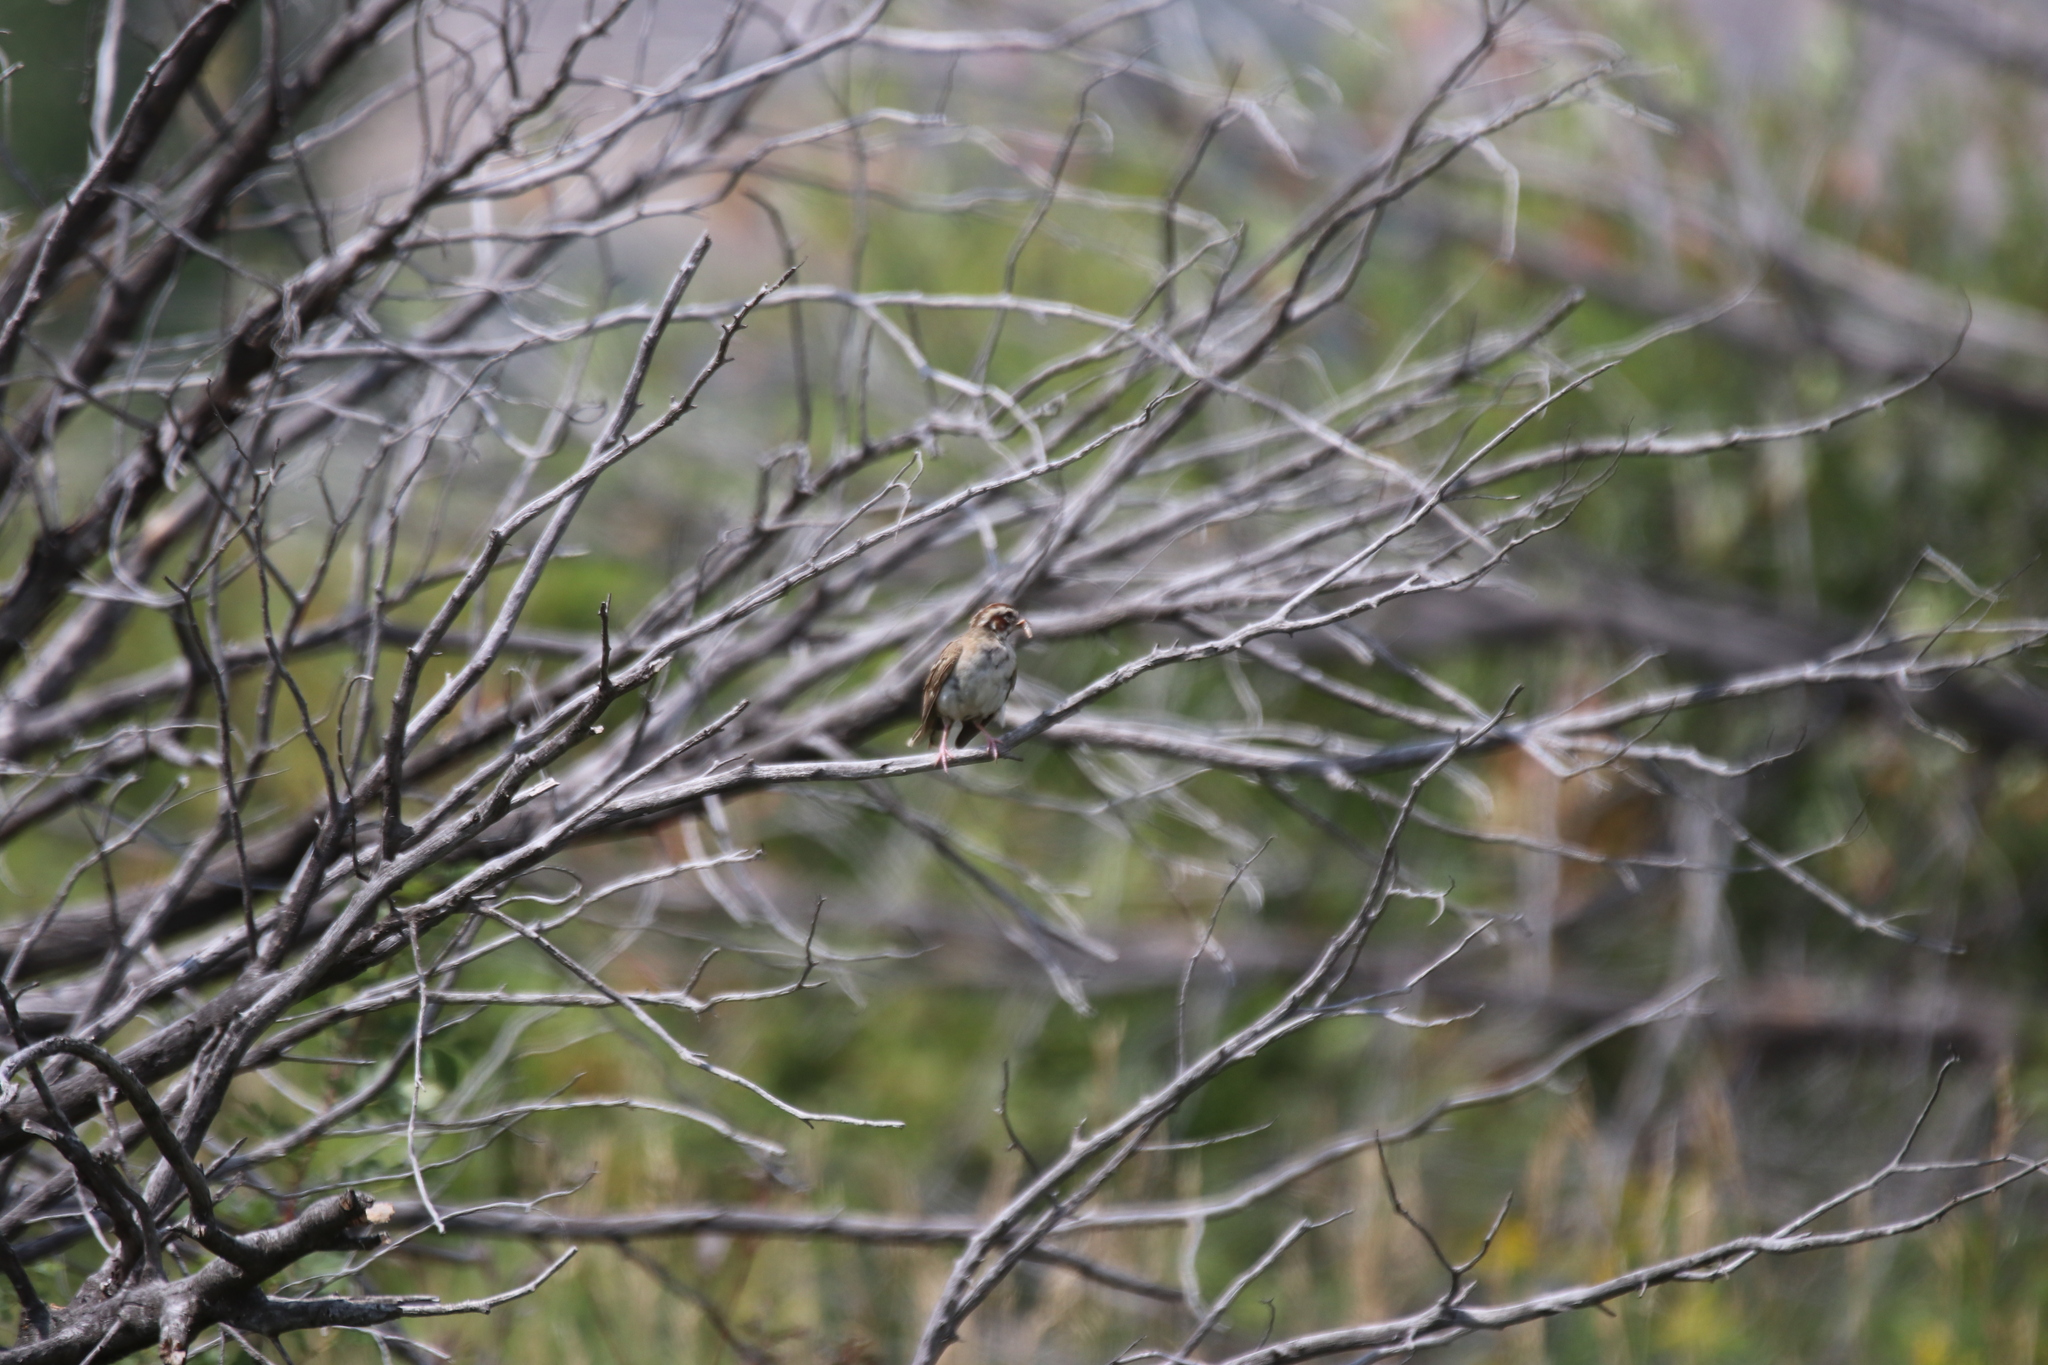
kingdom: Animalia
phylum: Chordata
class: Aves
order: Passeriformes
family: Passerellidae
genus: Chondestes
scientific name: Chondestes grammacus
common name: Lark sparrow
